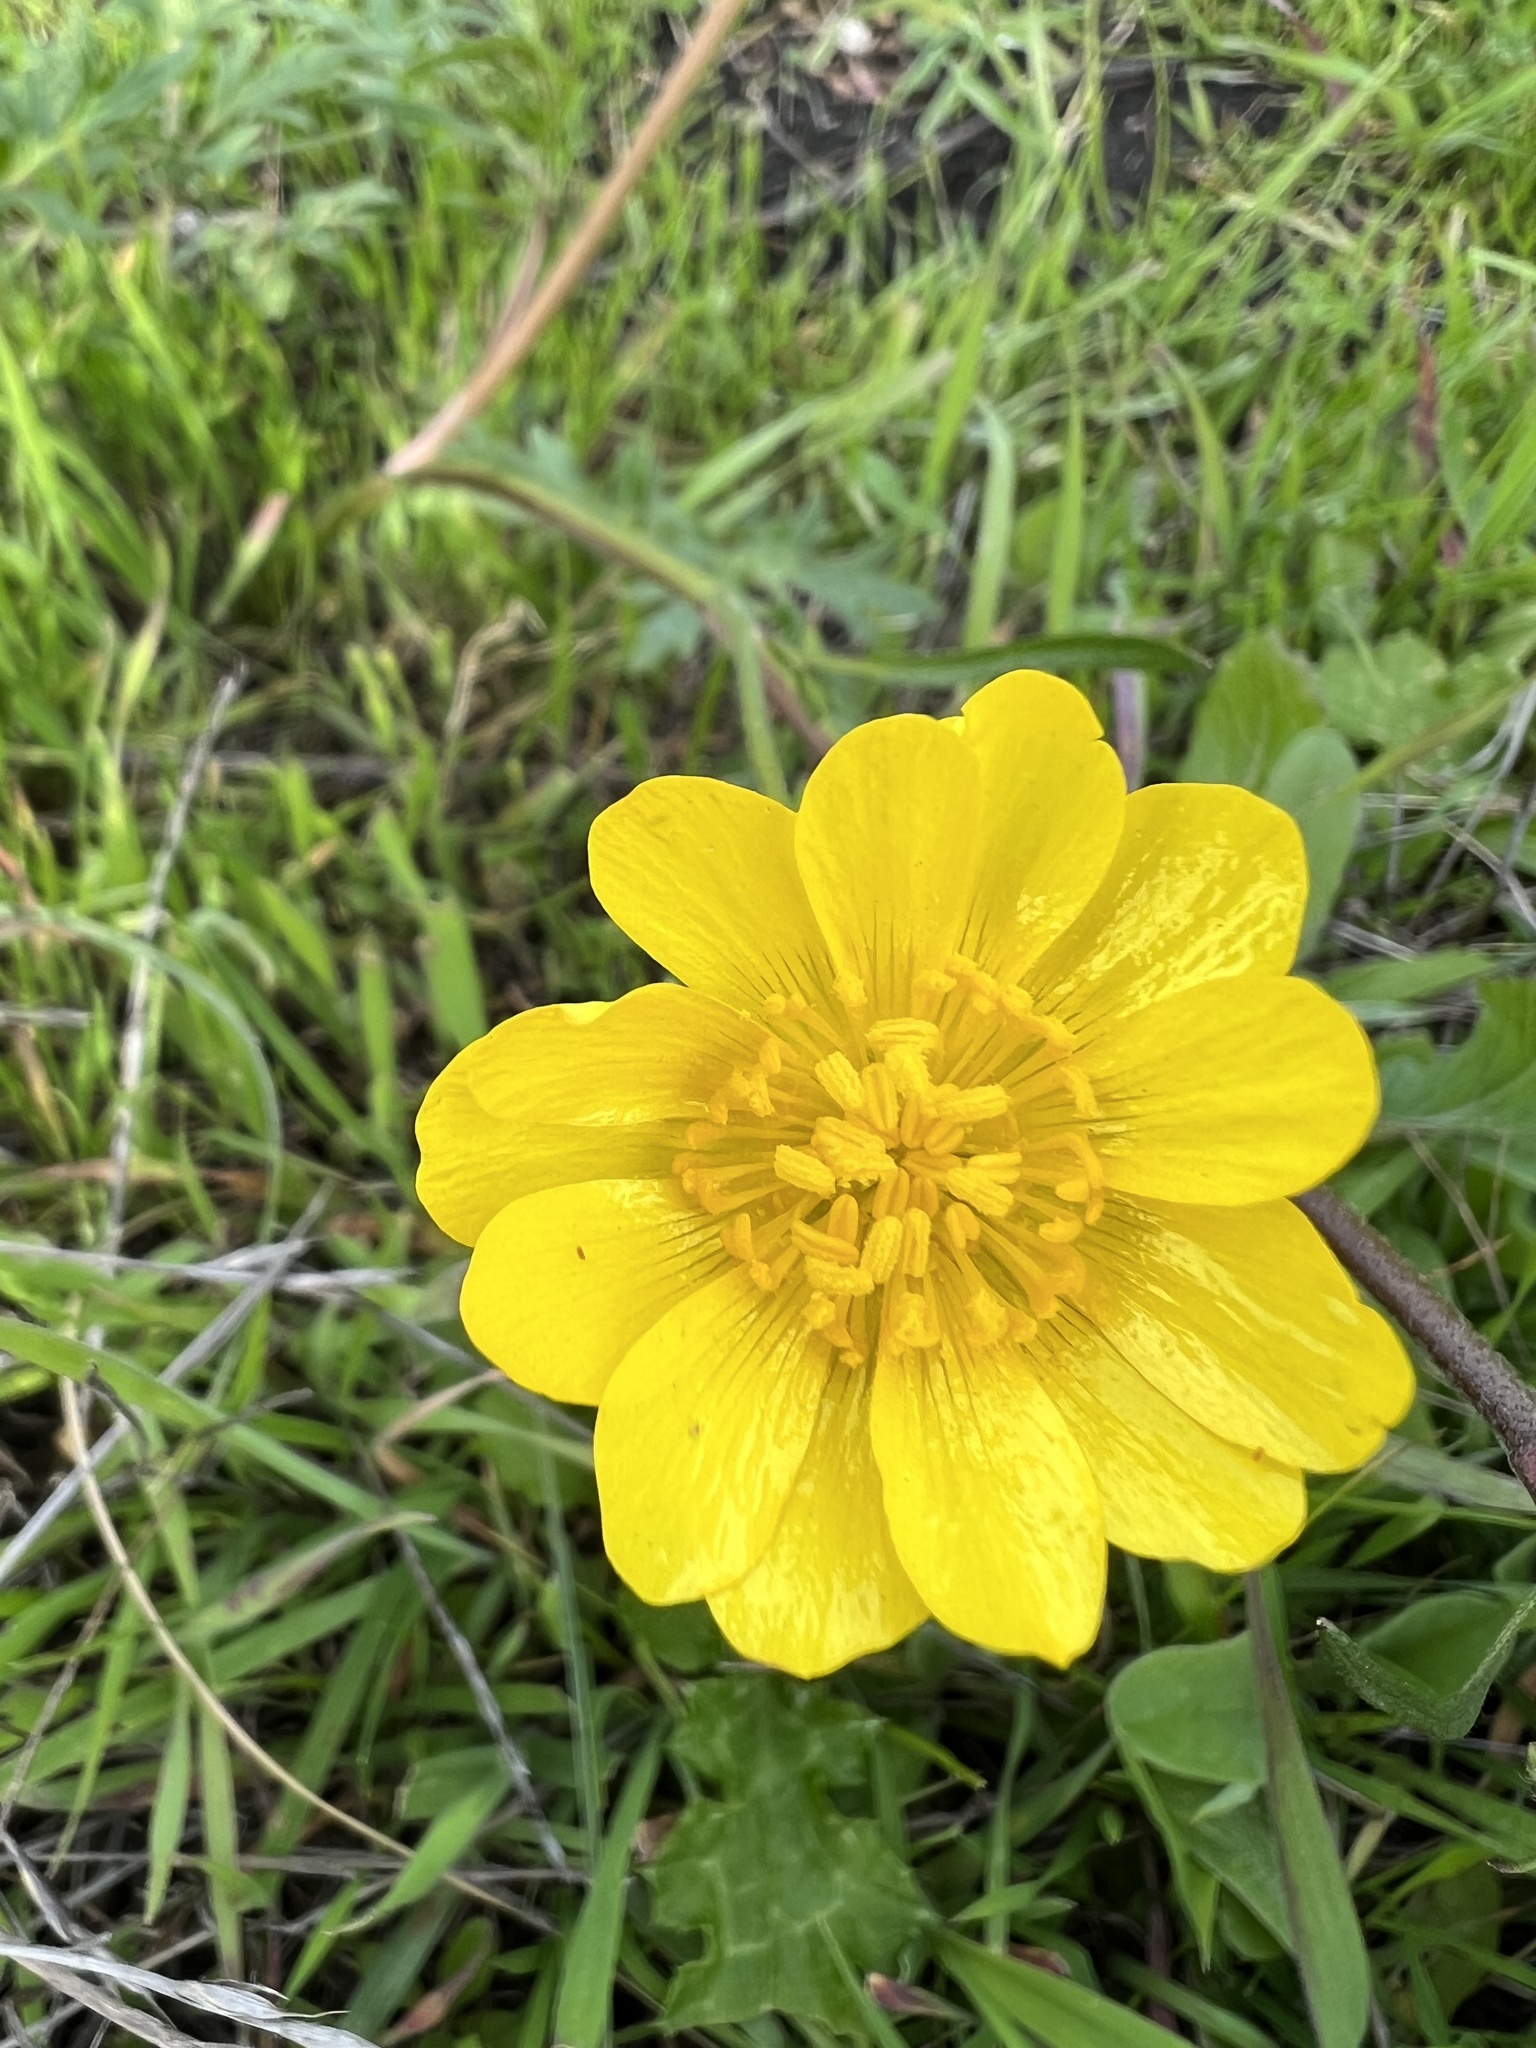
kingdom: Plantae
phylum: Tracheophyta
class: Magnoliopsida
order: Ranunculales
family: Ranunculaceae
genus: Ranunculus
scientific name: Ranunculus californicus
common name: California buttercup
